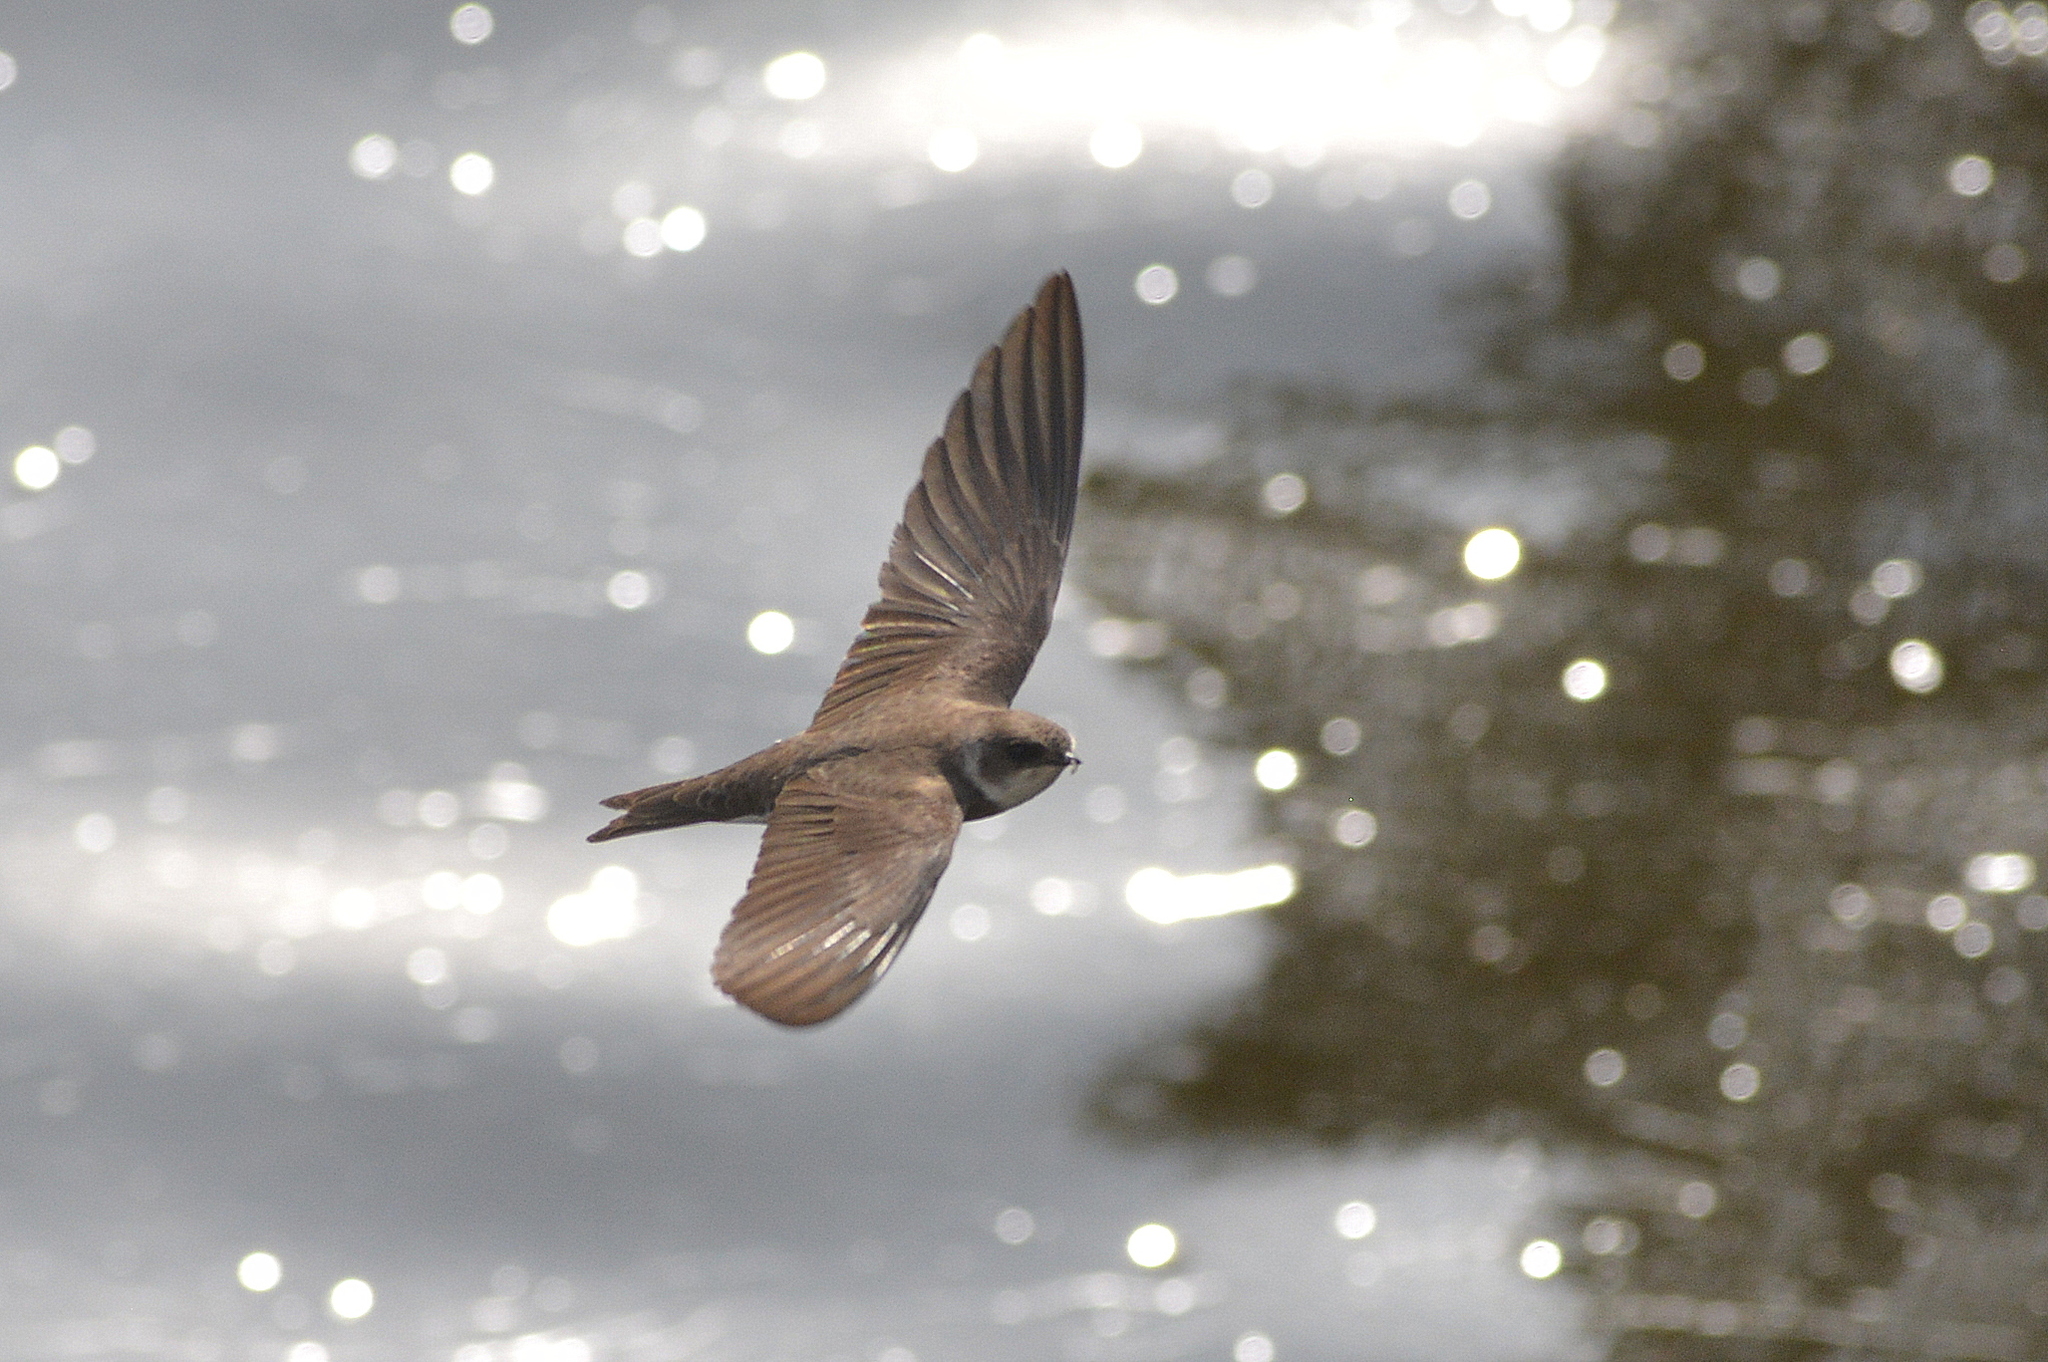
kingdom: Animalia
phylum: Chordata
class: Aves
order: Passeriformes
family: Hirundinidae
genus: Riparia
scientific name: Riparia riparia
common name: Sand martin
